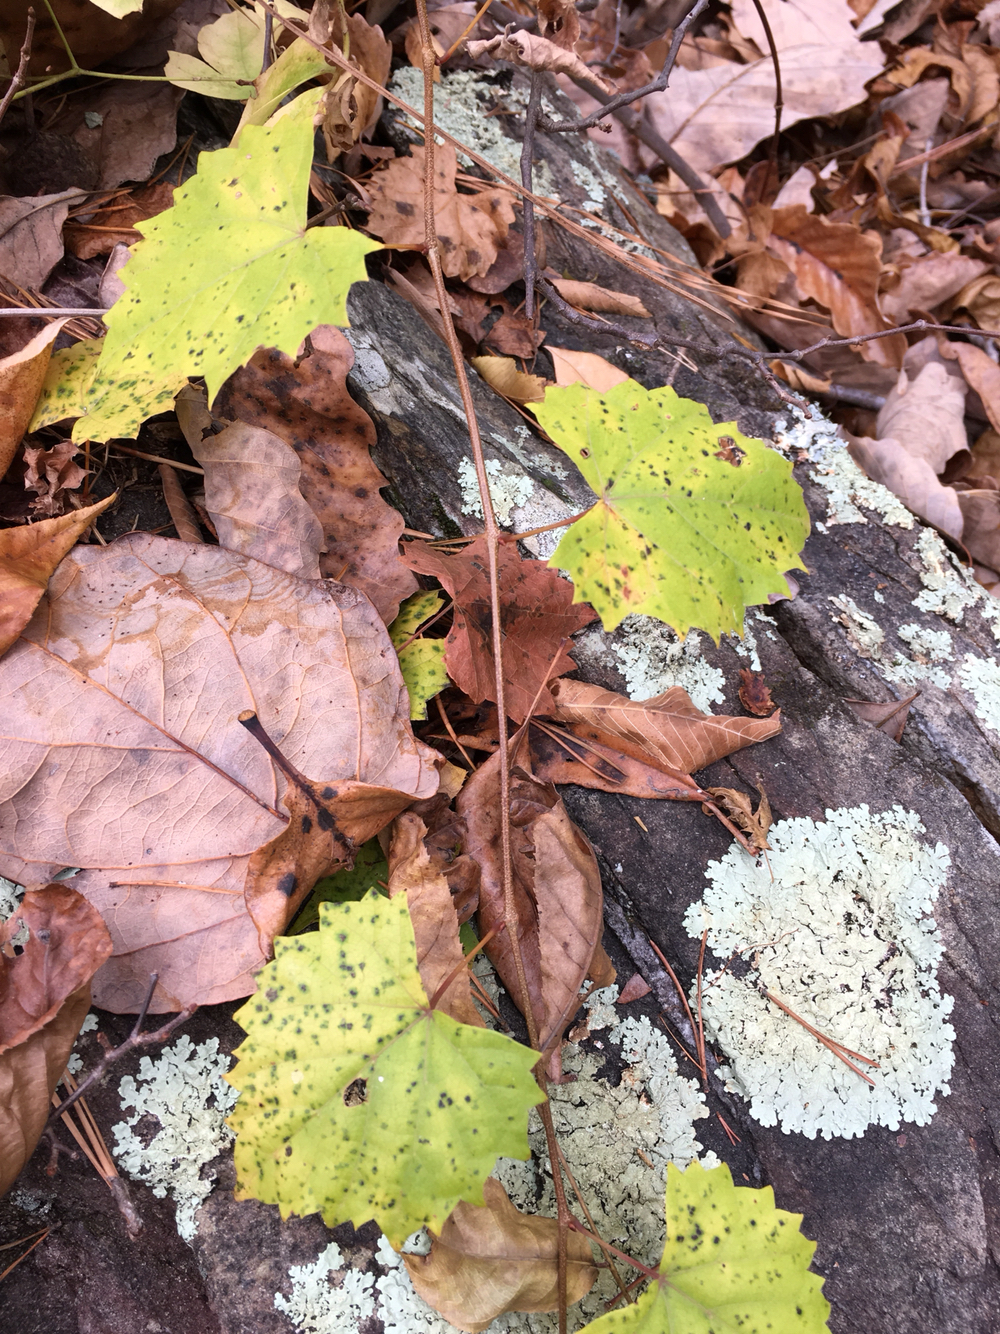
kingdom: Plantae
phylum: Tracheophyta
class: Magnoliopsida
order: Vitales
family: Vitaceae
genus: Vitis
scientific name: Vitis rotundifolia
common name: Muscadine grape
